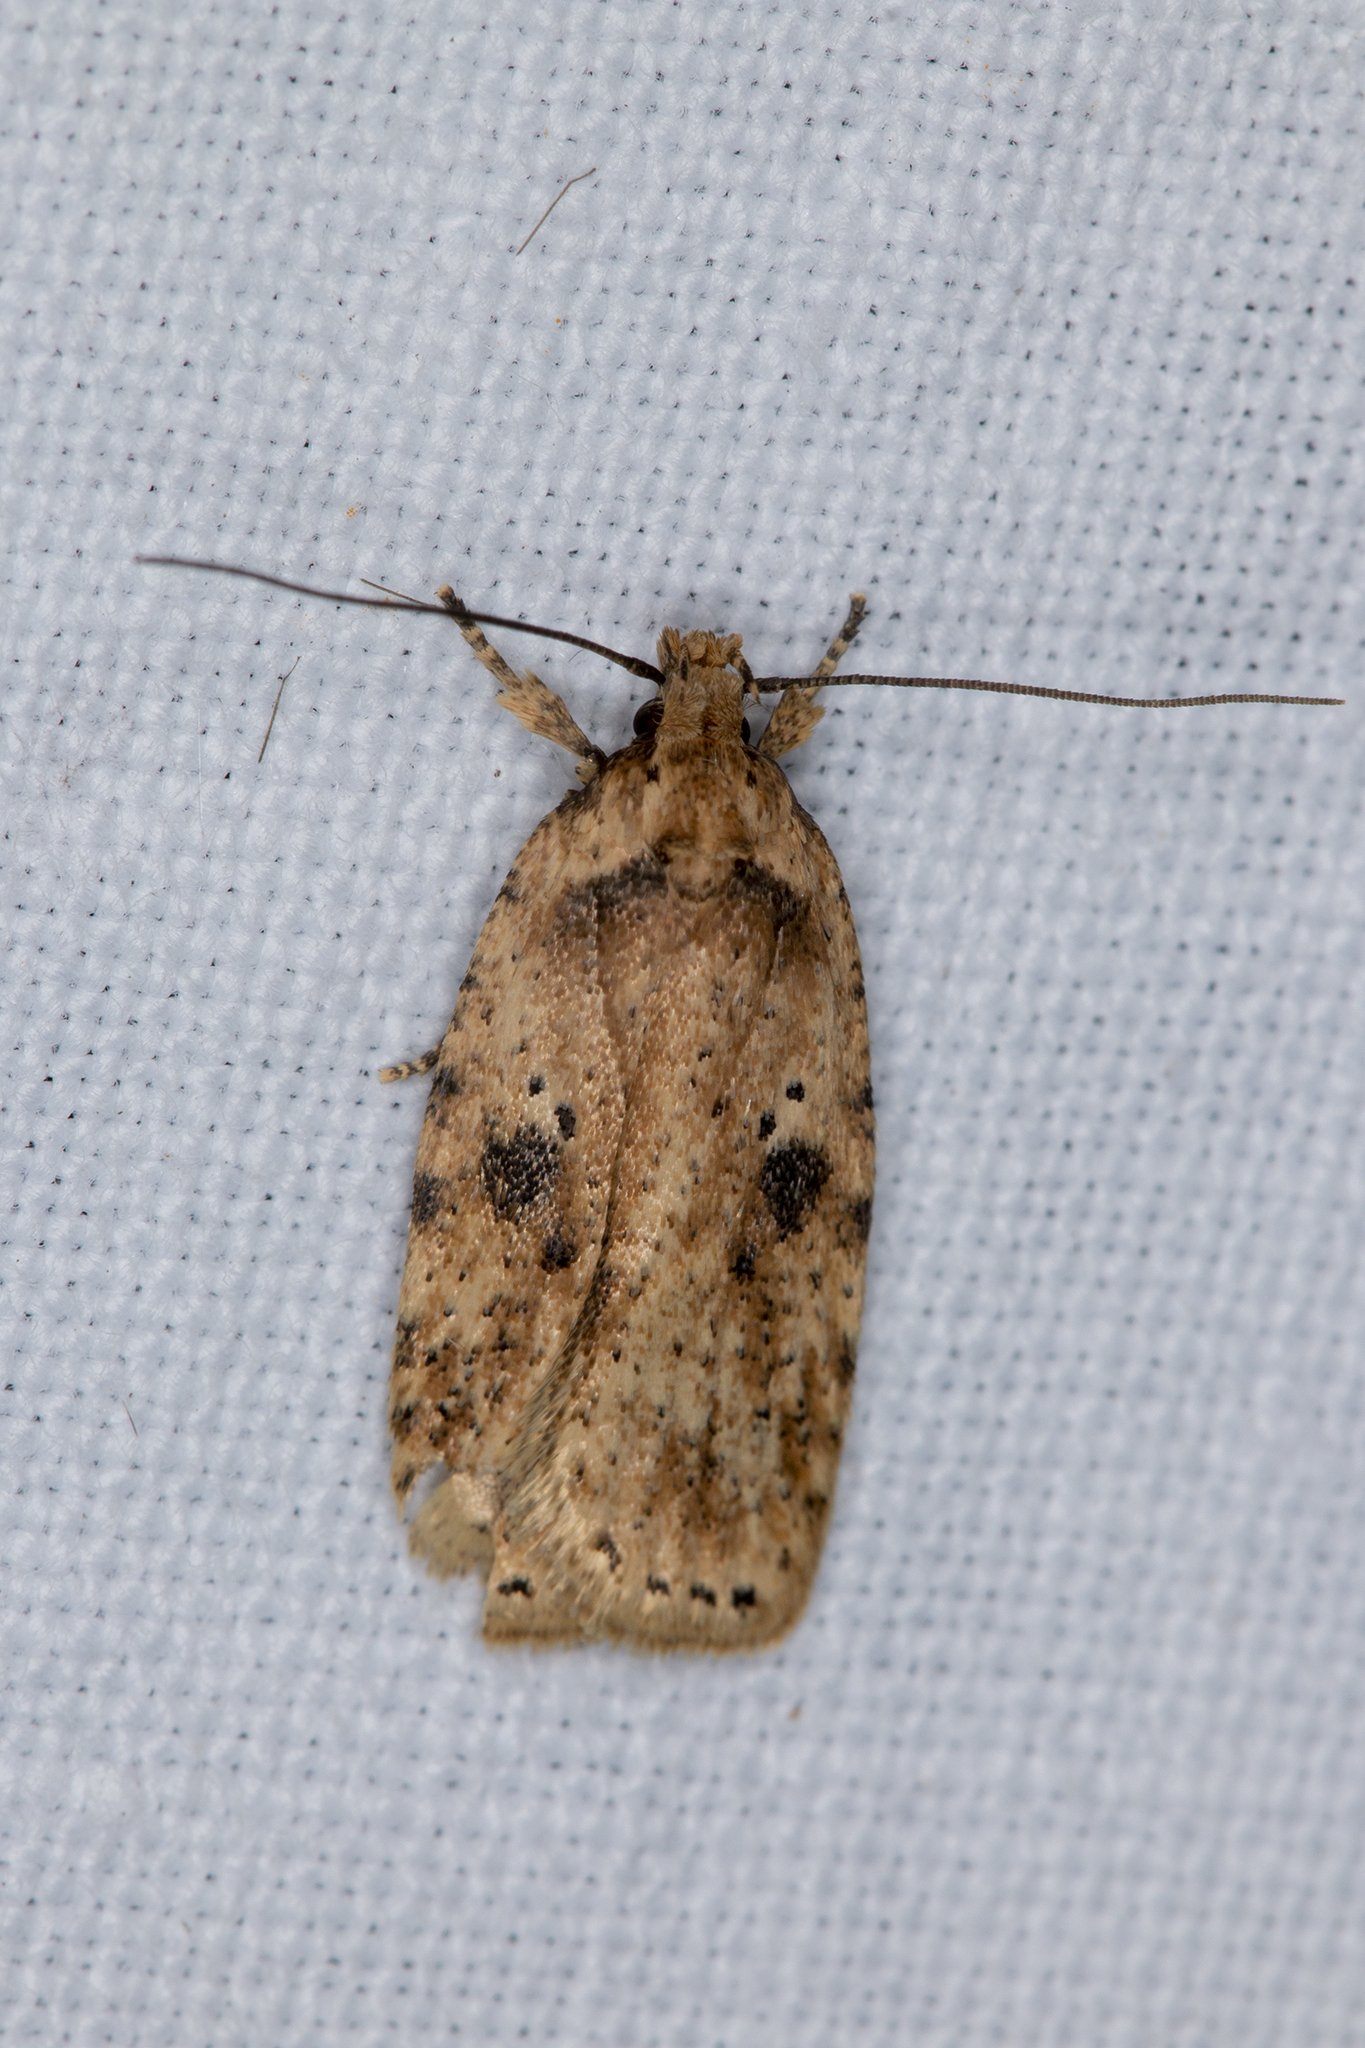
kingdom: Animalia
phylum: Arthropoda
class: Insecta
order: Lepidoptera
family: Depressariidae
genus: Agonopterix
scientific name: Agonopterix arenella
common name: Brindled flat-body
